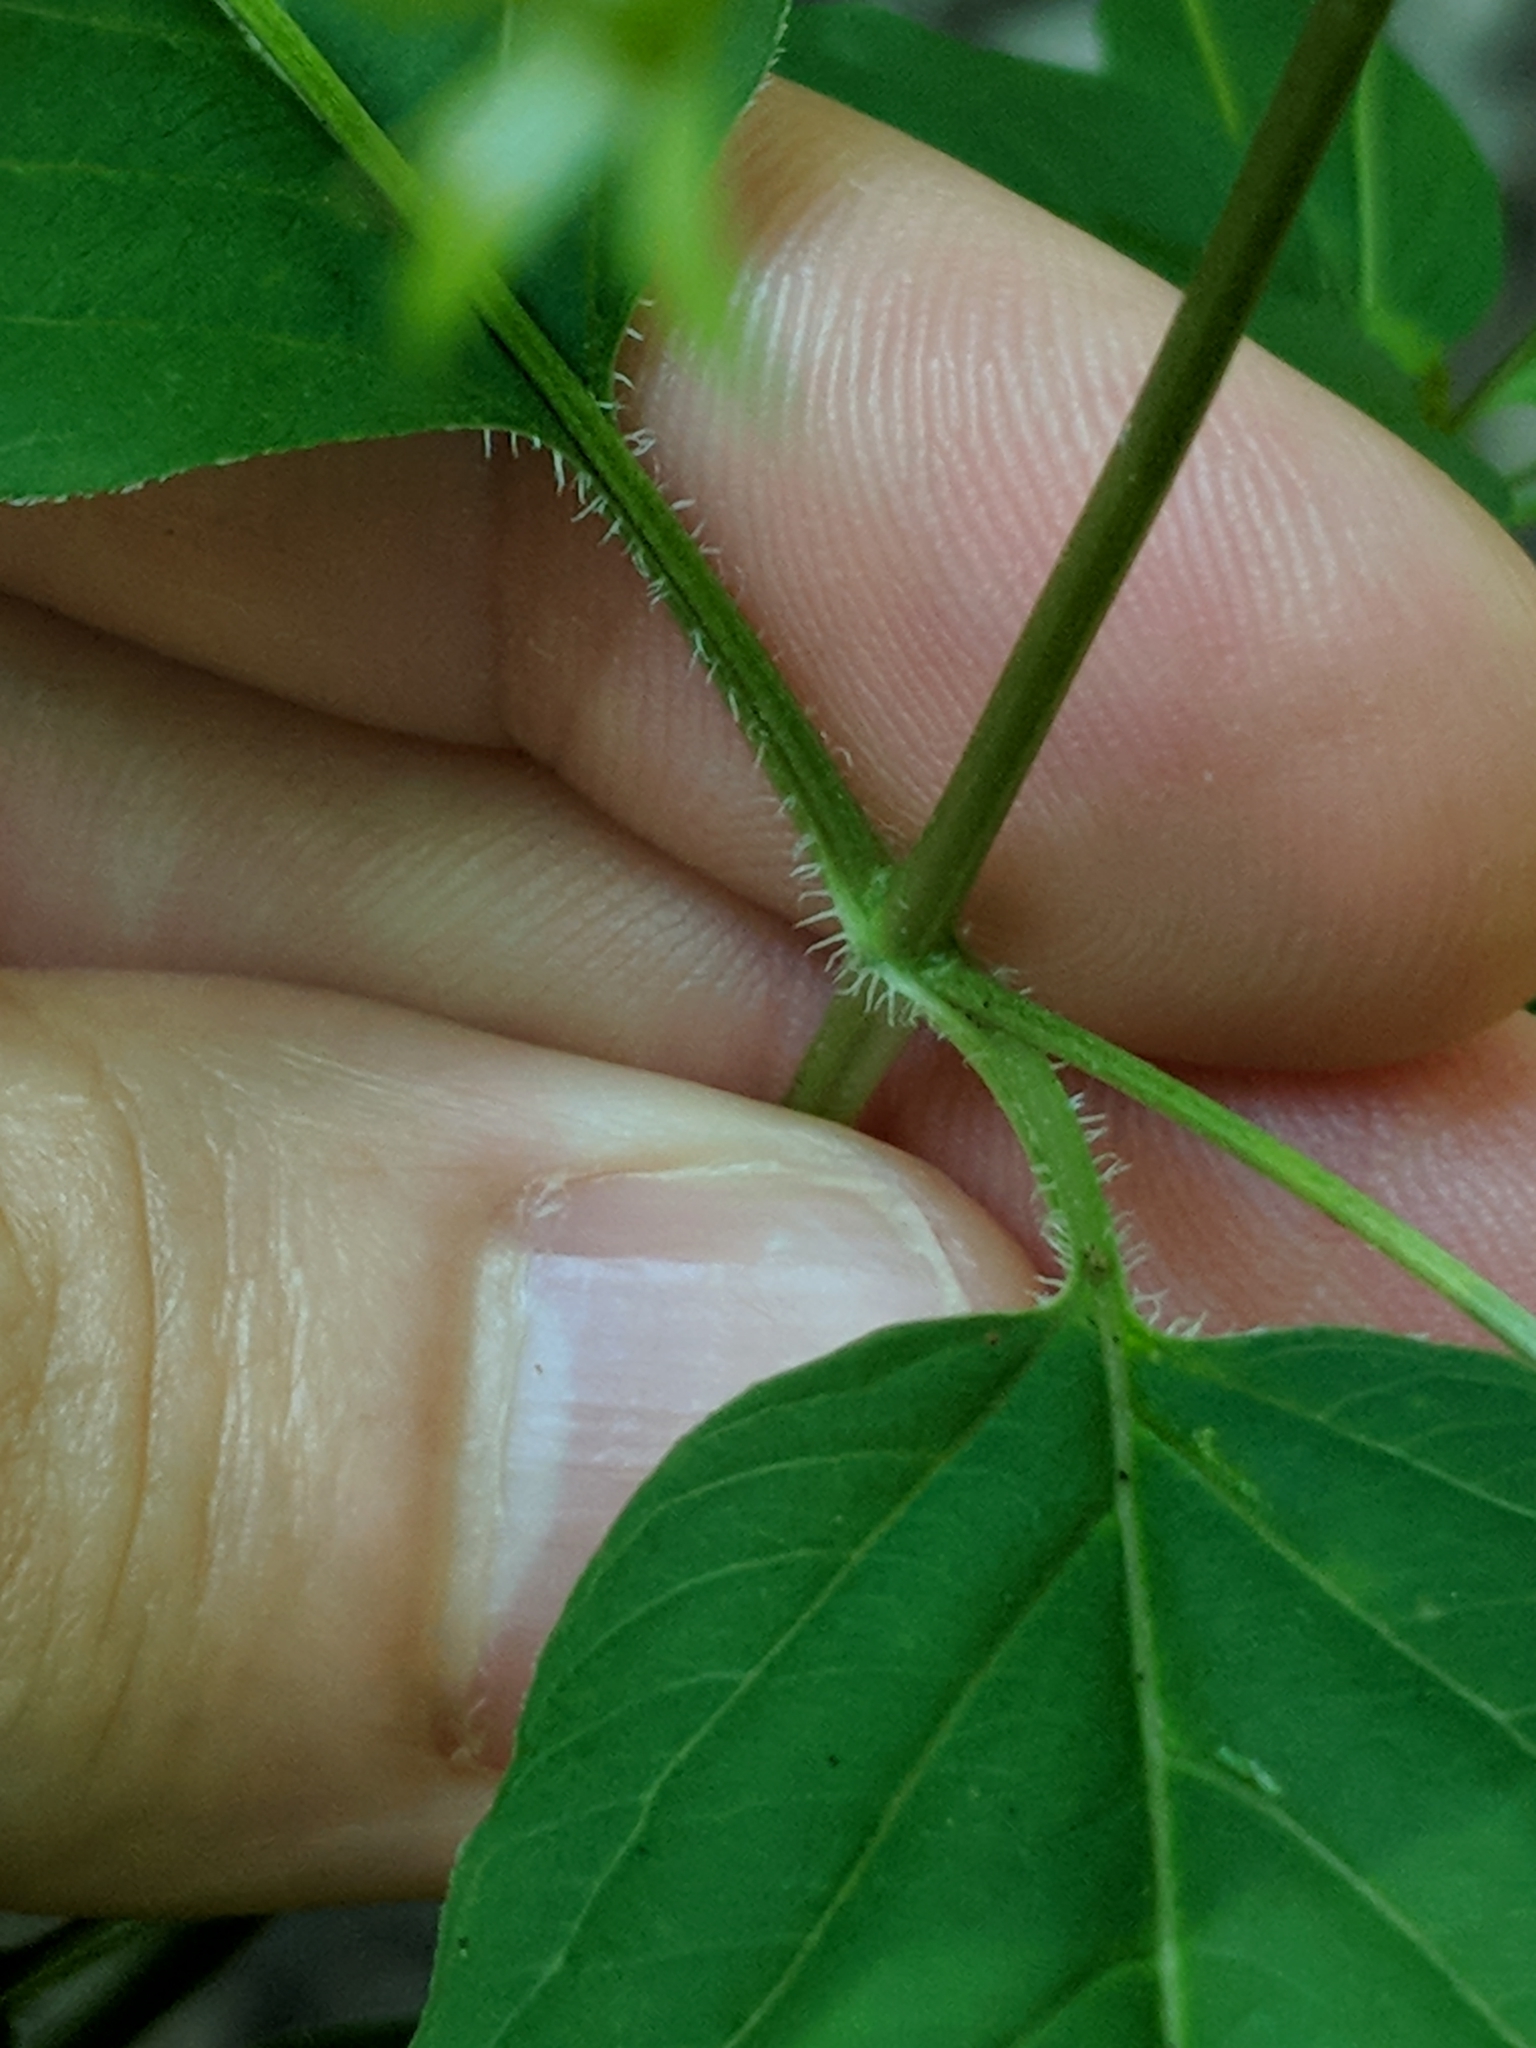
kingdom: Plantae
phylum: Tracheophyta
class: Magnoliopsida
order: Ericales
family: Primulaceae
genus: Lysimachia
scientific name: Lysimachia ciliata
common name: Fringed loosestrife
